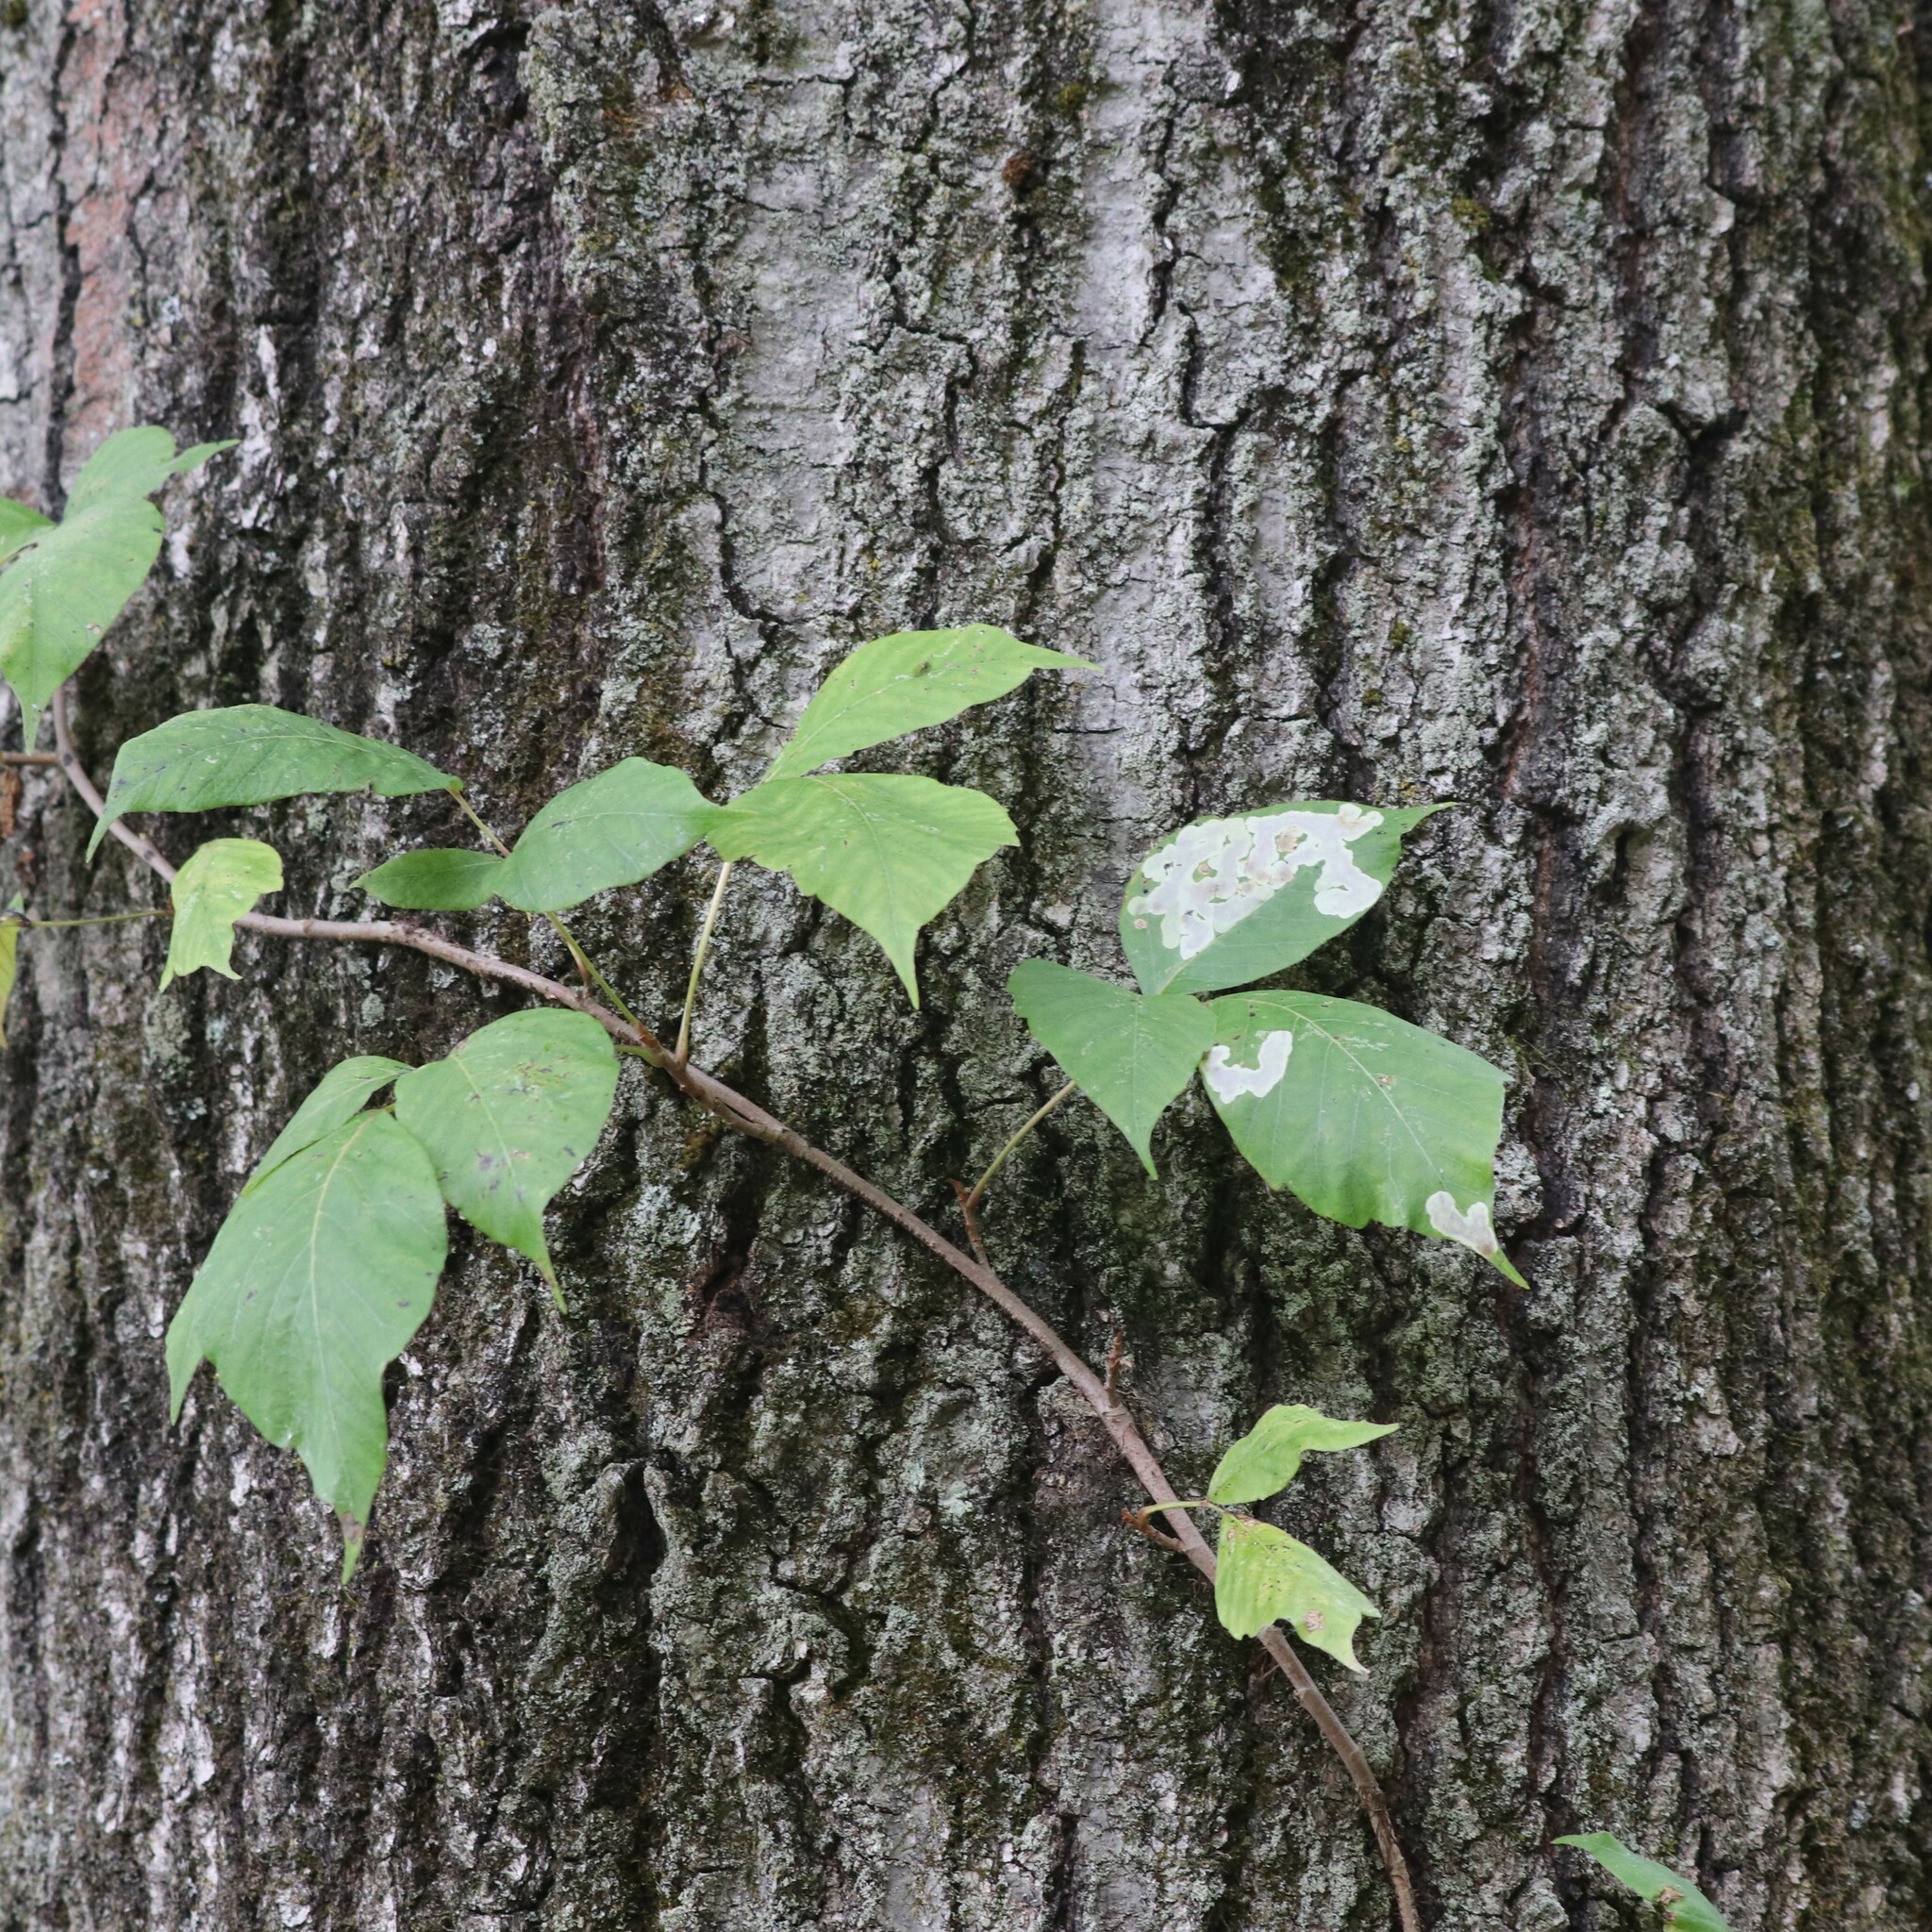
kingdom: Plantae
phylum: Tracheophyta
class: Magnoliopsida
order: Sapindales
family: Anacardiaceae
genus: Toxicodendron
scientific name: Toxicodendron radicans
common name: Poison ivy
